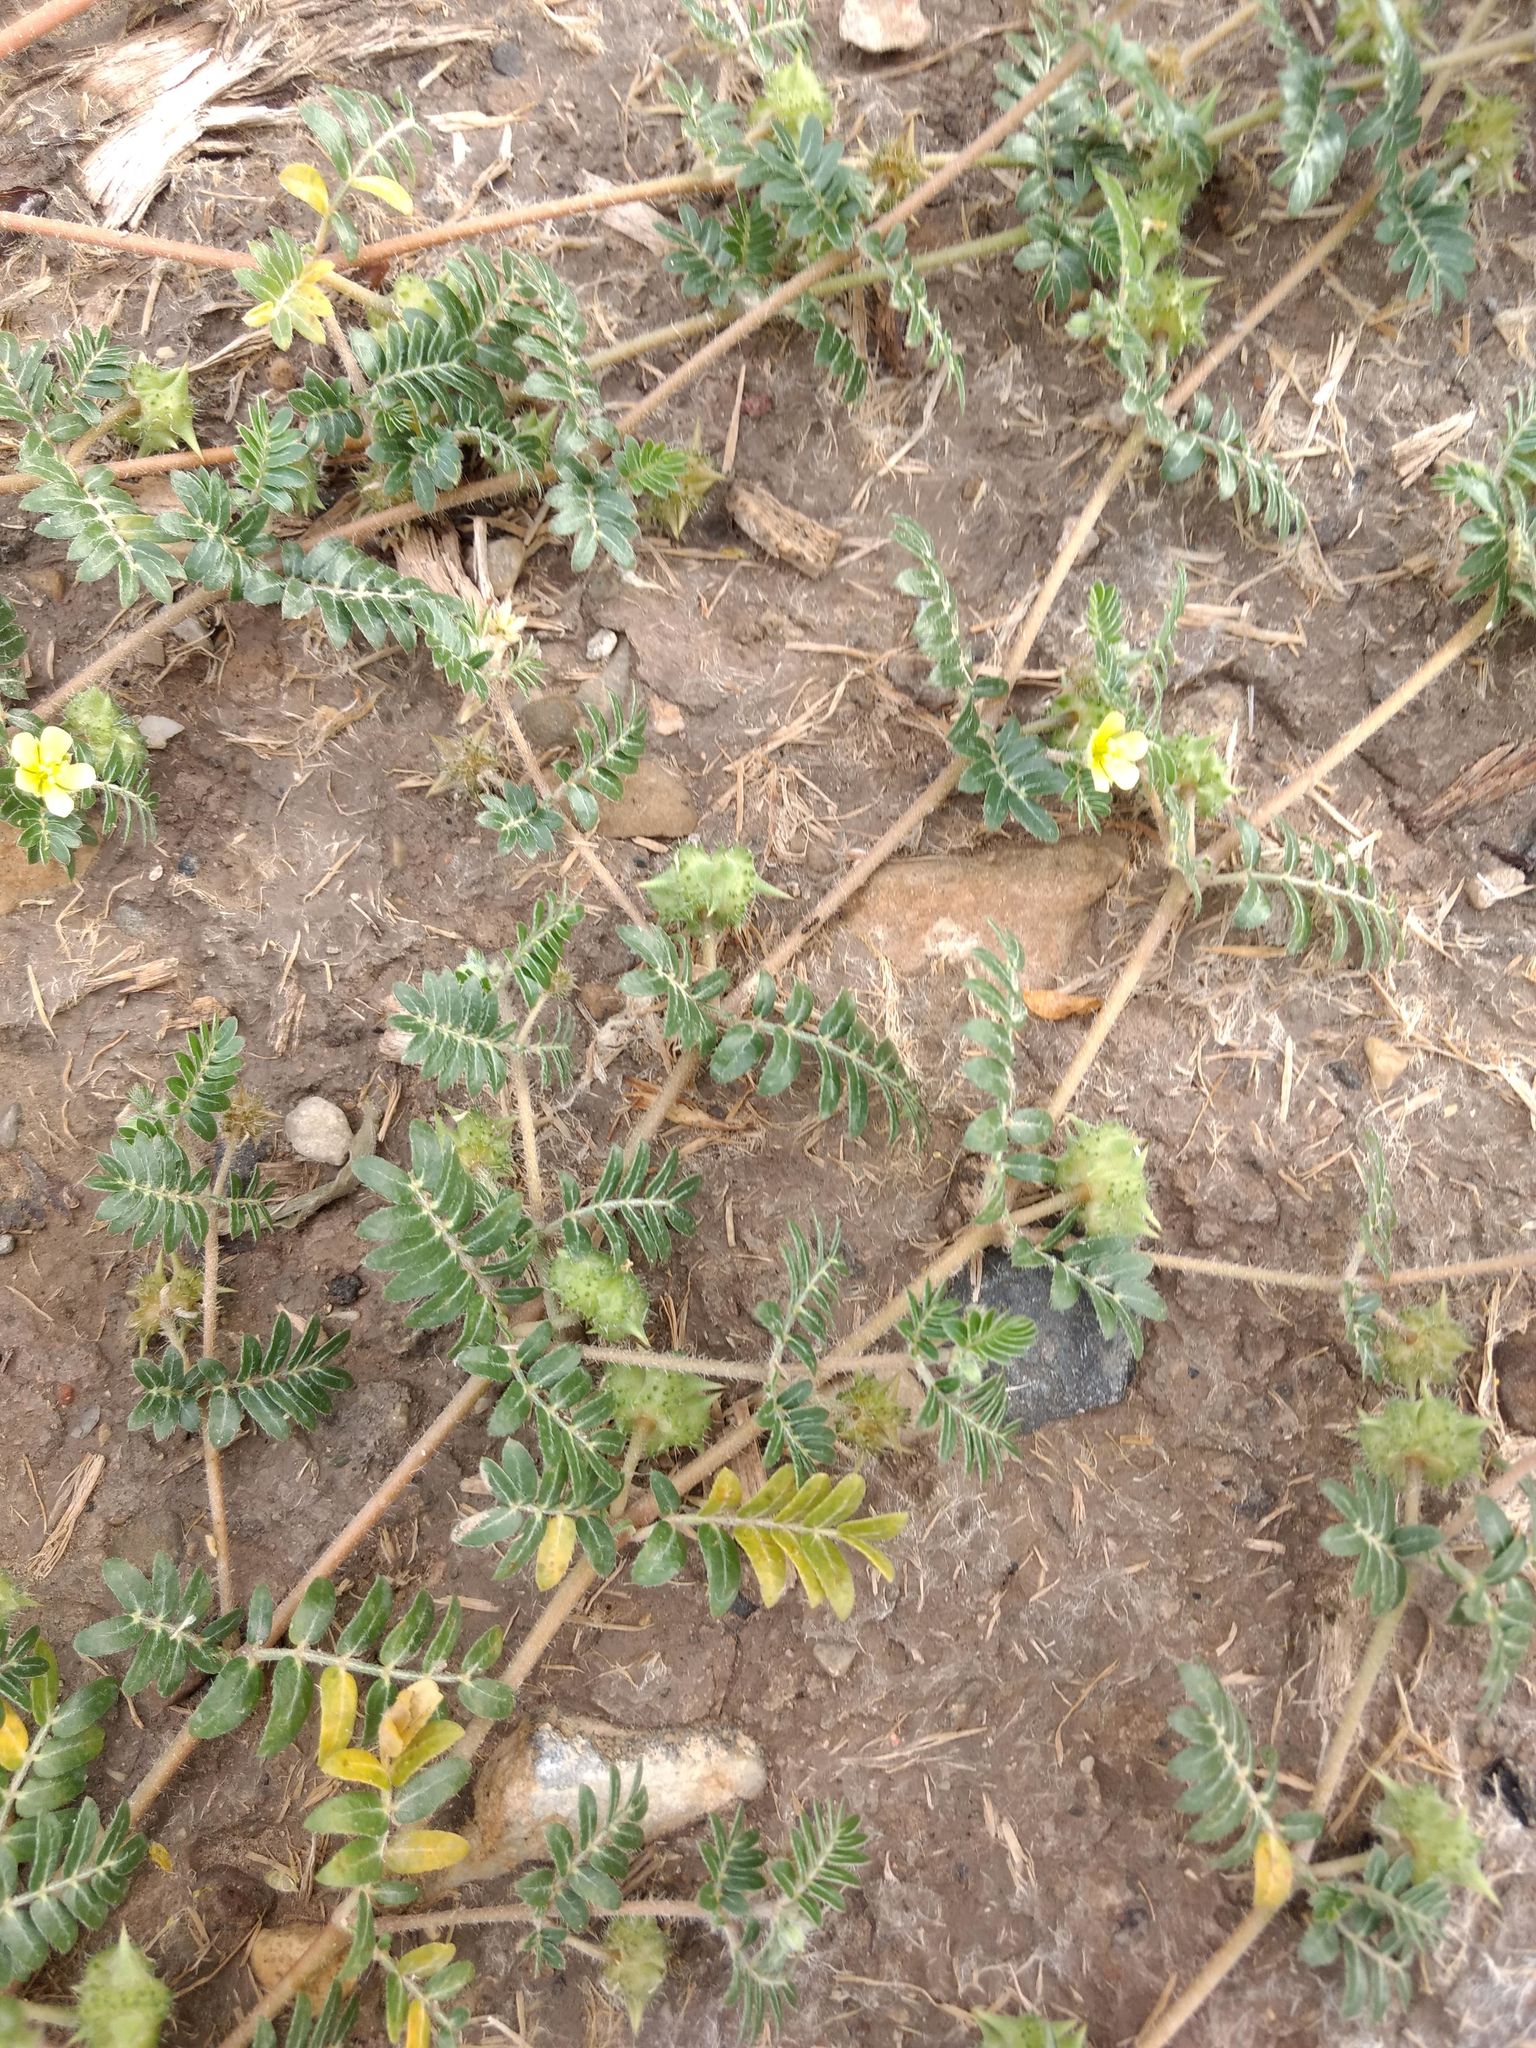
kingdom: Plantae
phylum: Tracheophyta
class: Magnoliopsida
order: Zygophyllales
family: Zygophyllaceae
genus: Tribulus
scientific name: Tribulus terrestris
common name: Puncturevine
